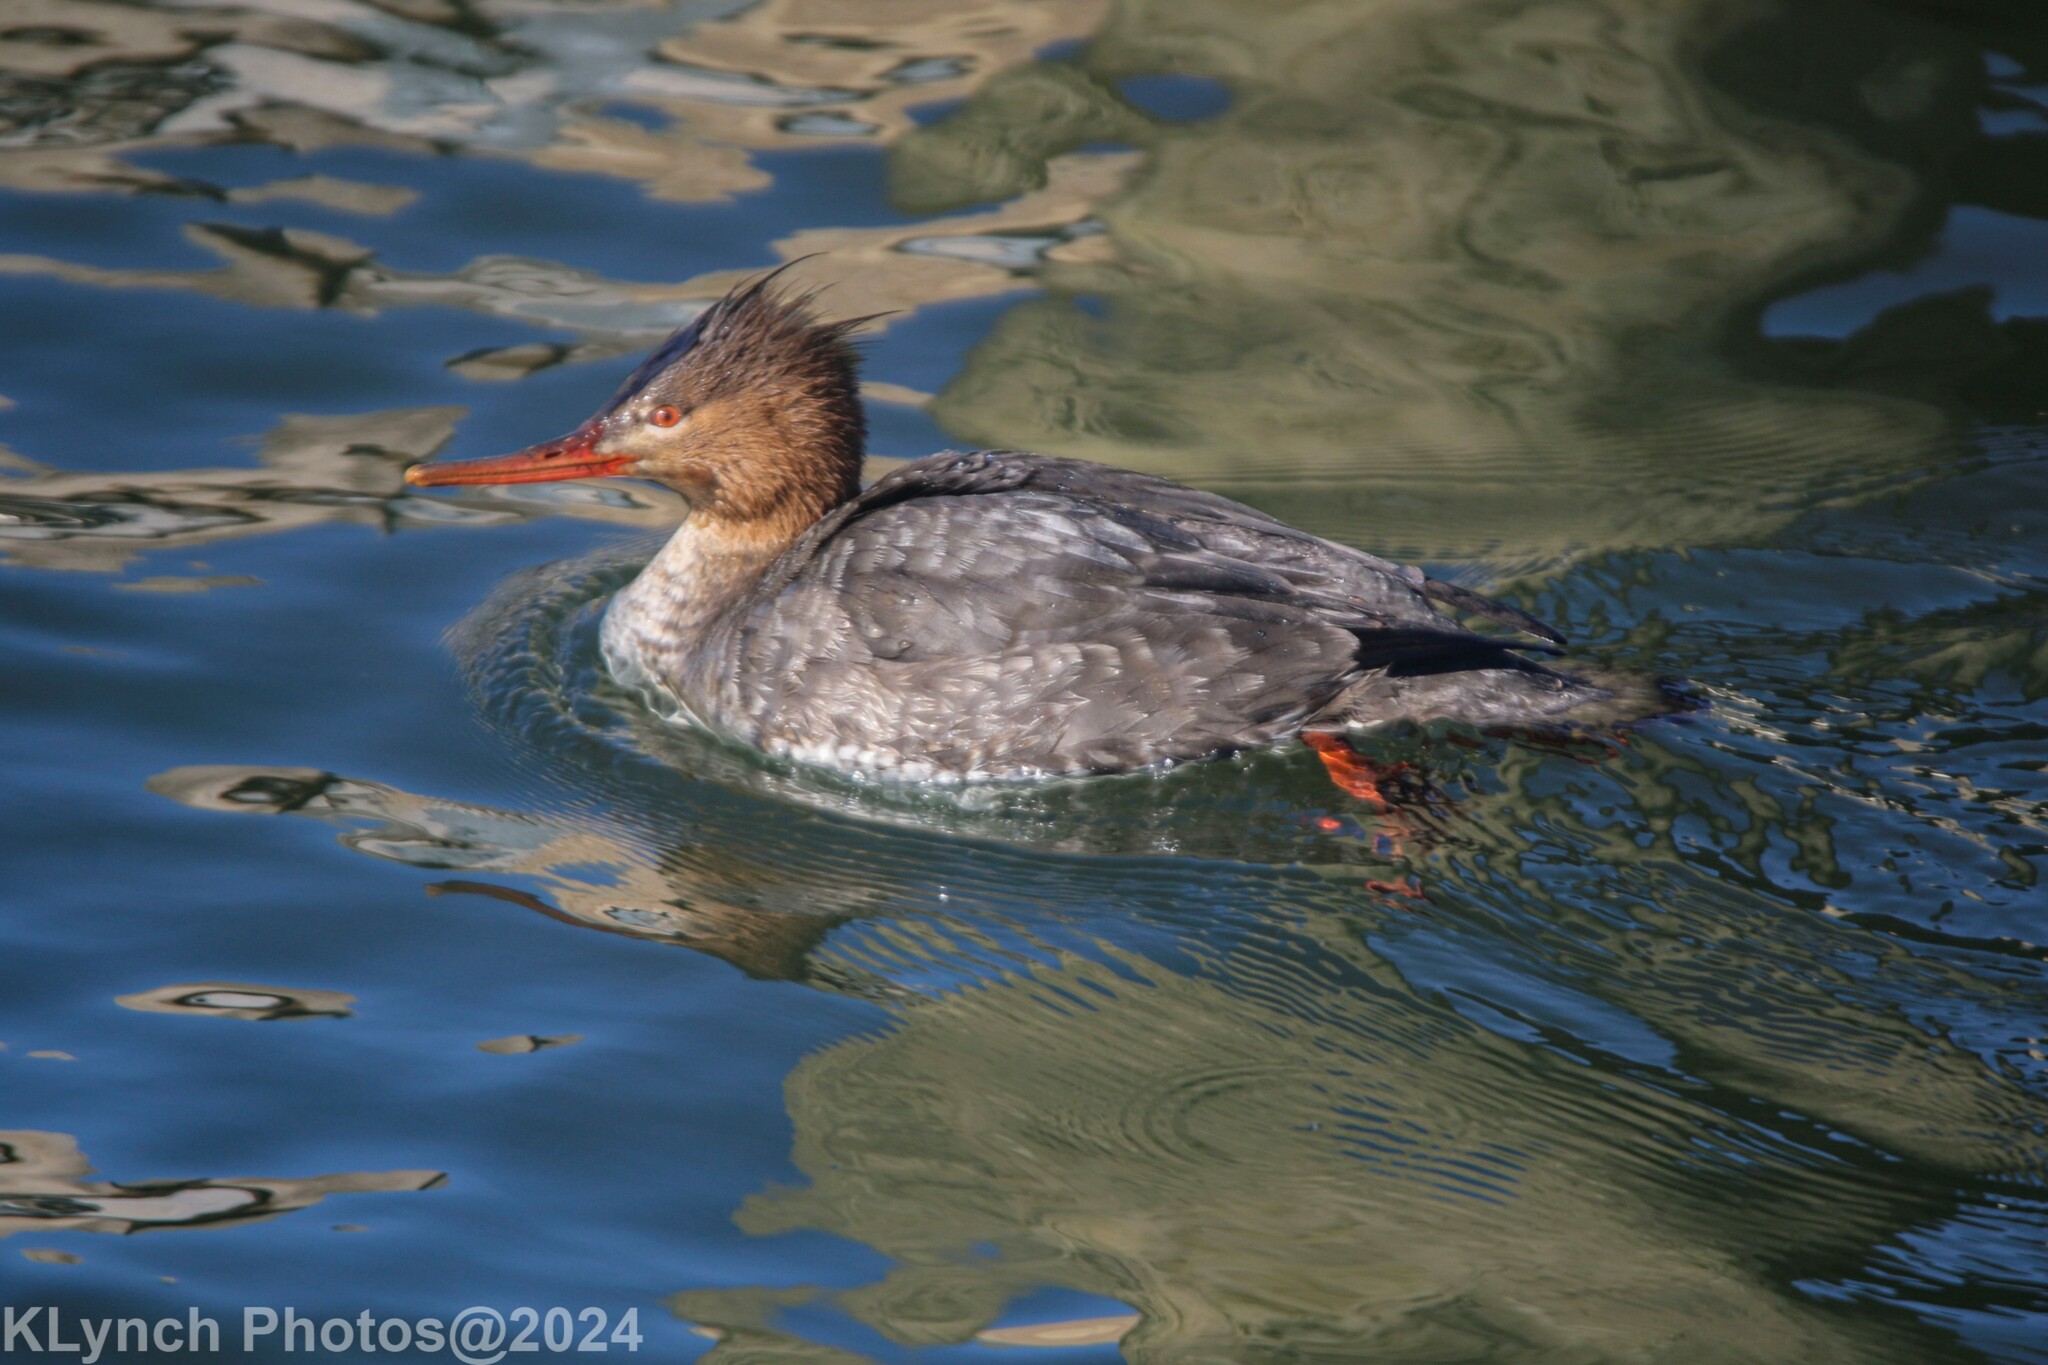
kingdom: Animalia
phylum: Chordata
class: Aves
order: Anseriformes
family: Anatidae
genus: Mergus
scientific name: Mergus serrator
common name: Red-breasted merganser
